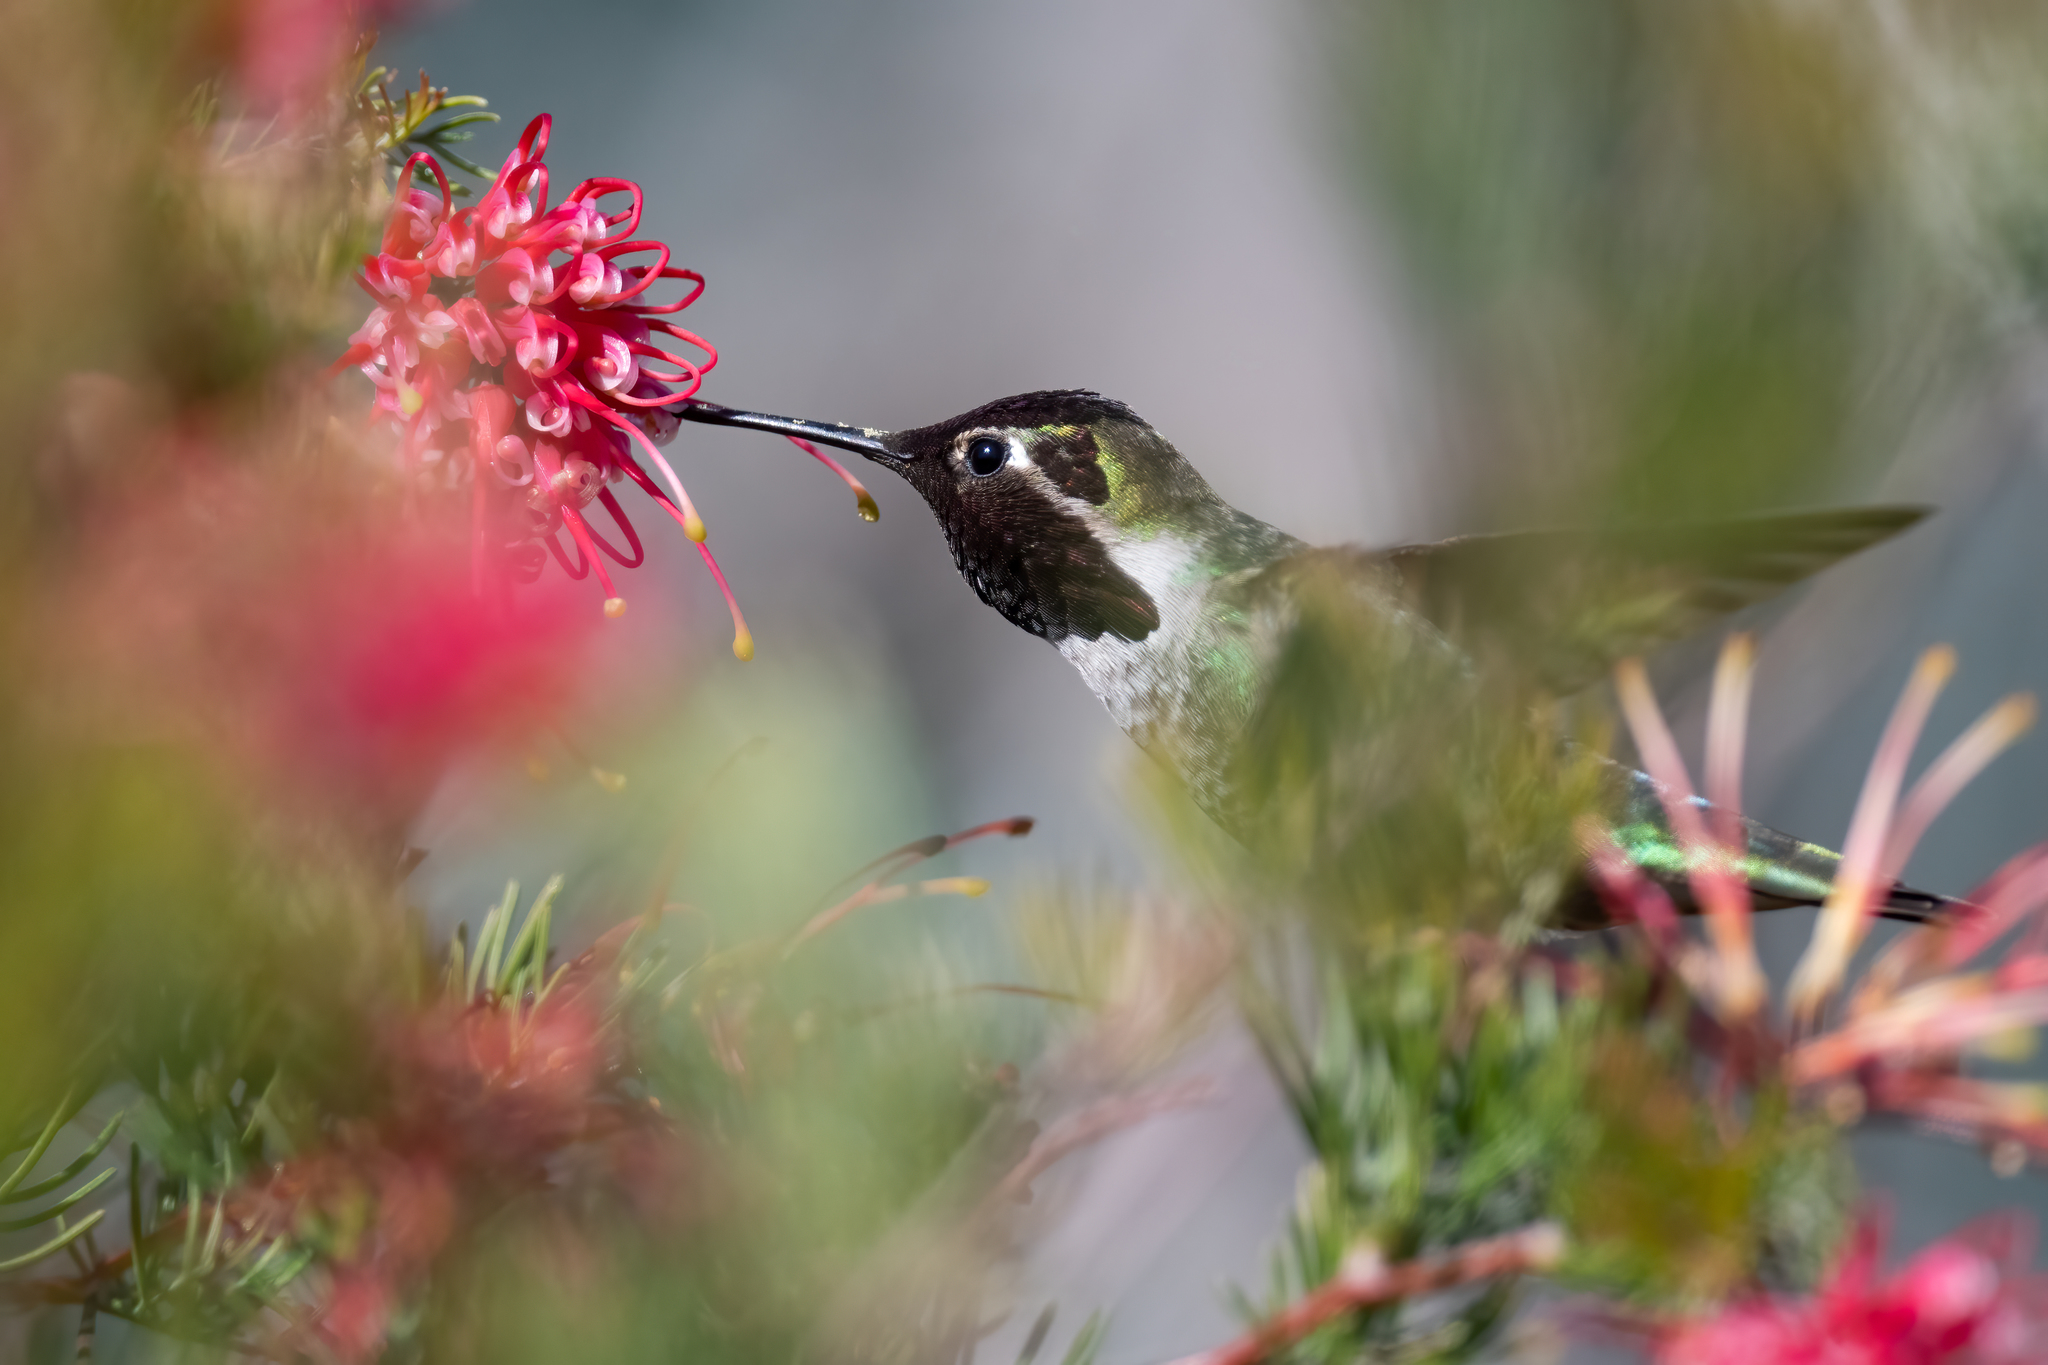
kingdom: Animalia
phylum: Chordata
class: Aves
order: Apodiformes
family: Trochilidae
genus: Calypte
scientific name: Calypte anna
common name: Anna's hummingbird
